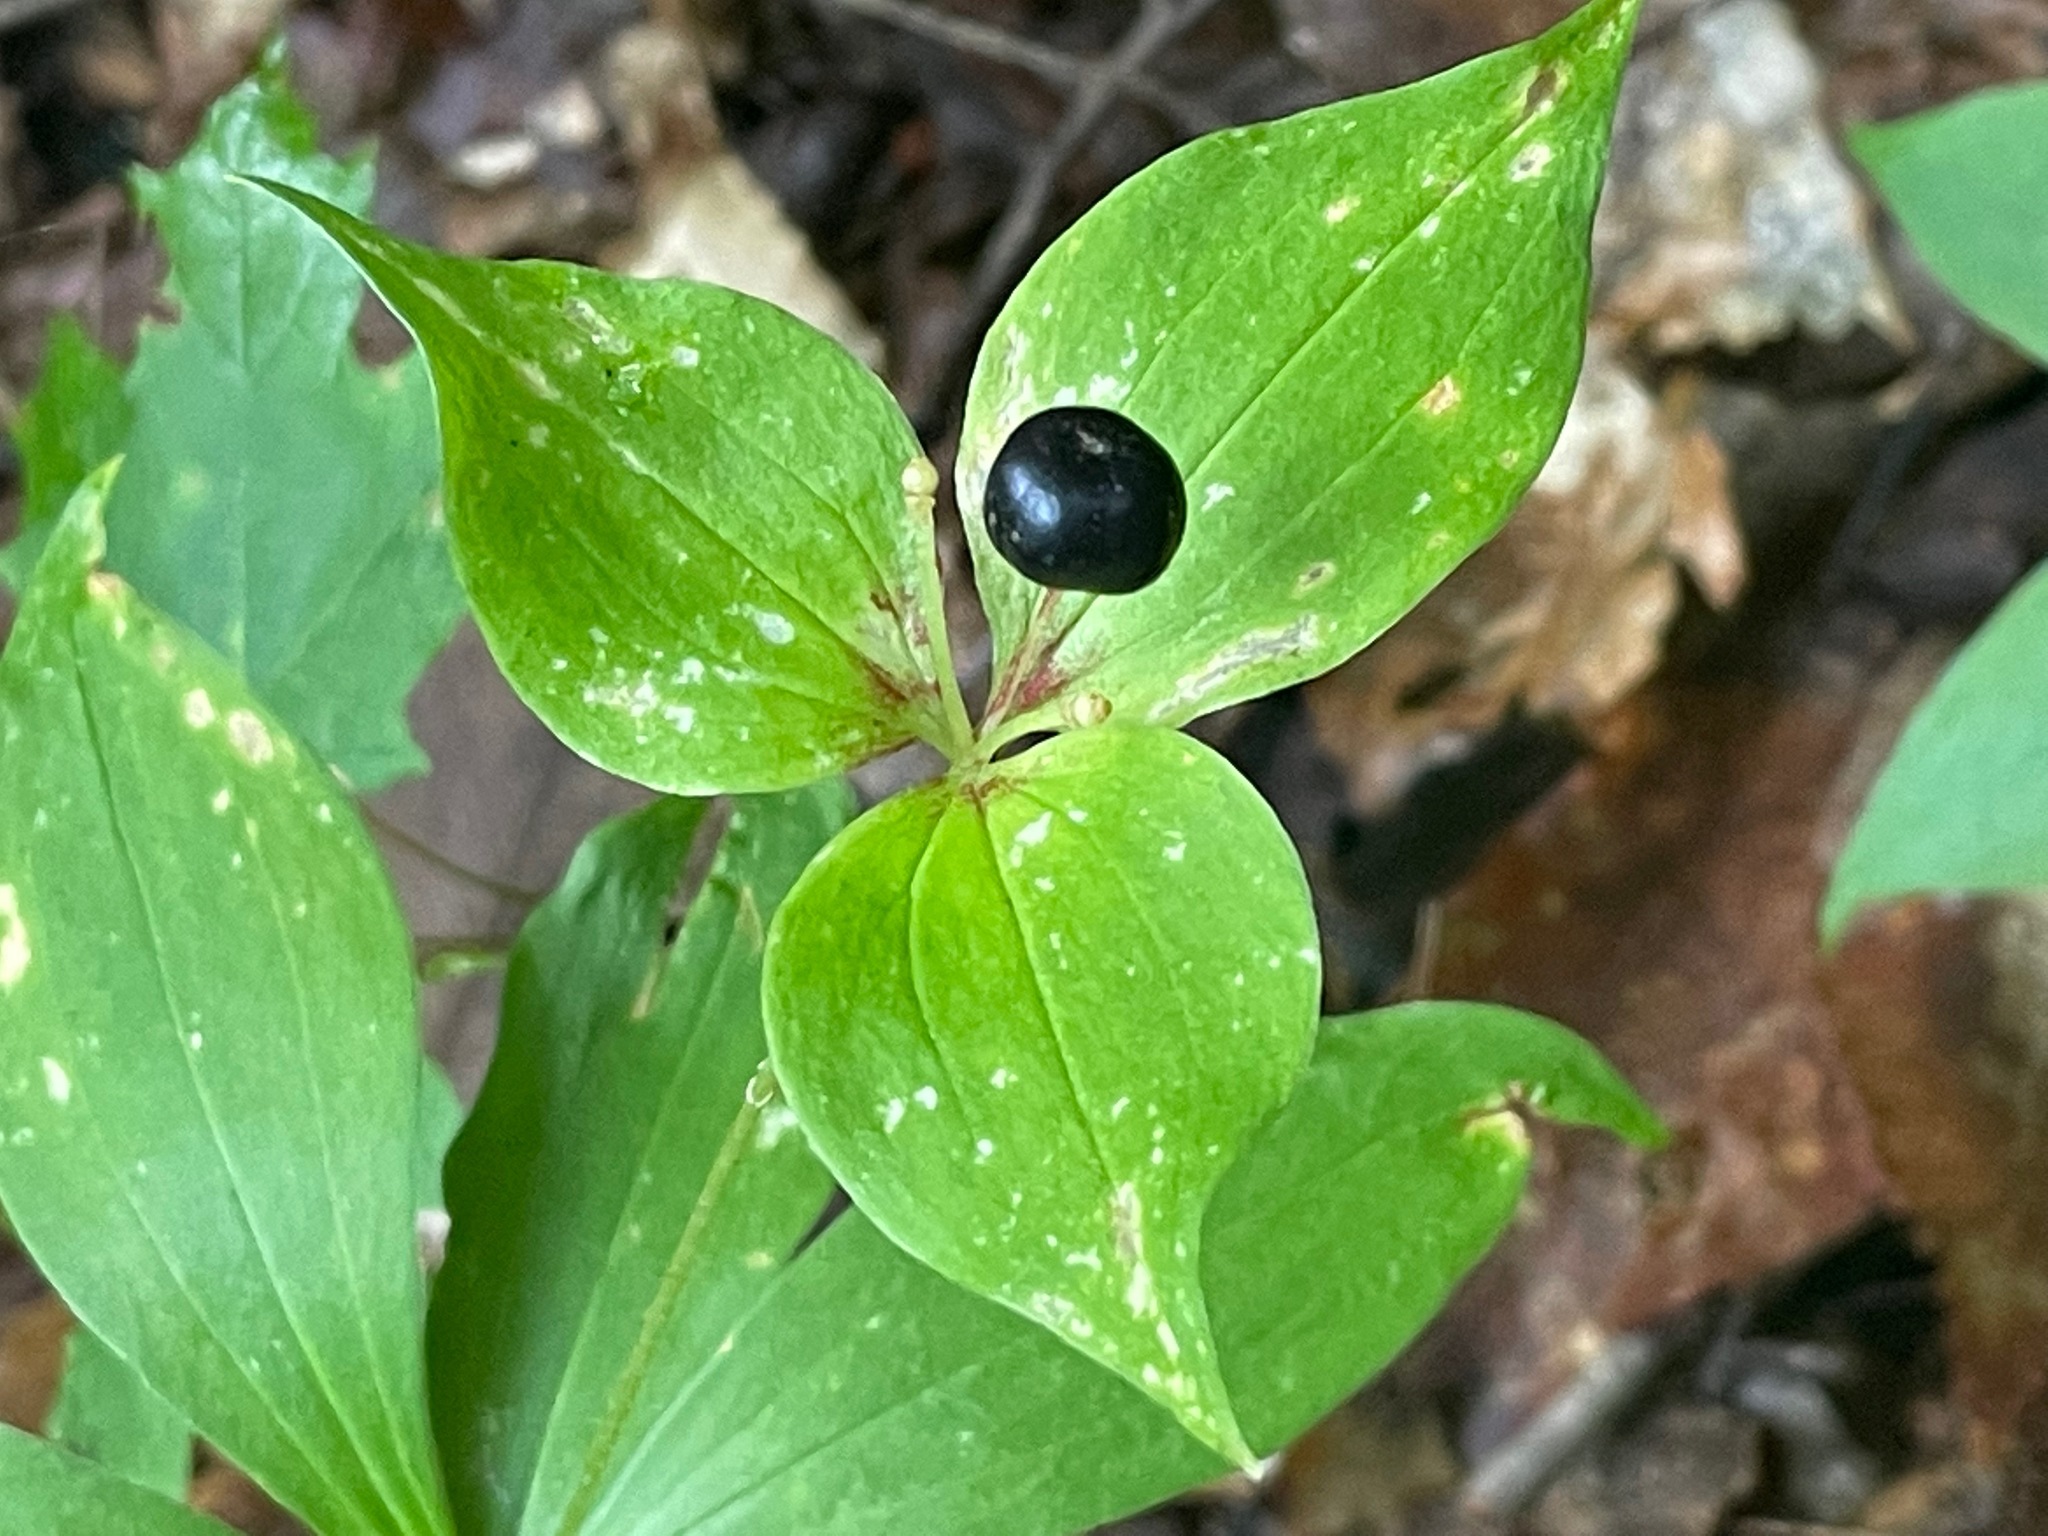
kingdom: Plantae
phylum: Tracheophyta
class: Liliopsida
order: Liliales
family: Liliaceae
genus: Medeola
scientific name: Medeola virginiana
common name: Indian cucumber-root
